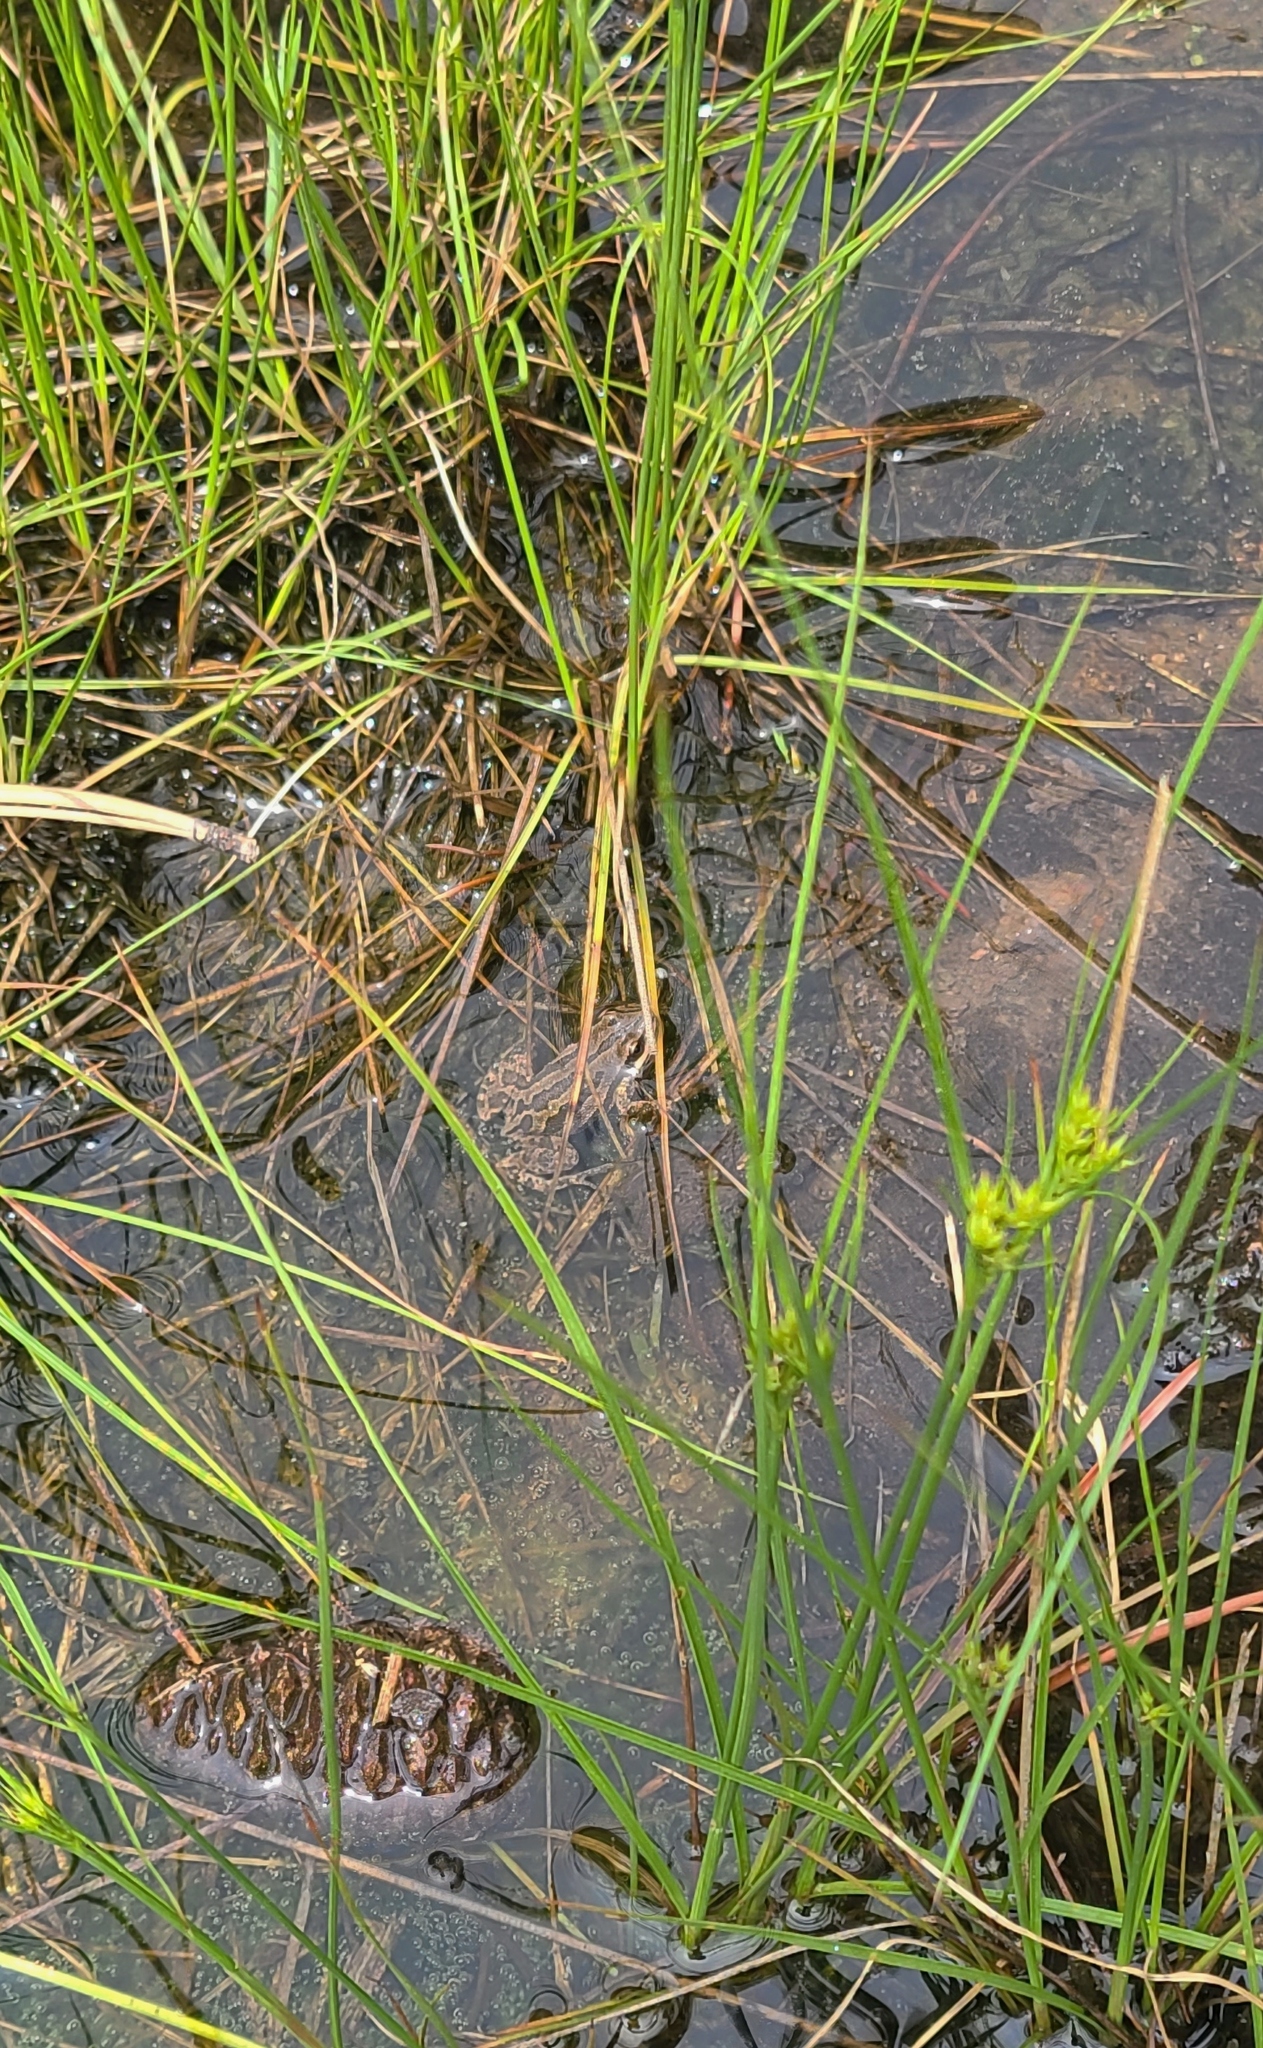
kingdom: Animalia
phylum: Chordata
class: Amphibia
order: Anura
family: Hylidae
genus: Pseudacris
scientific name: Pseudacris maculata
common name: Boreal chorus frog
